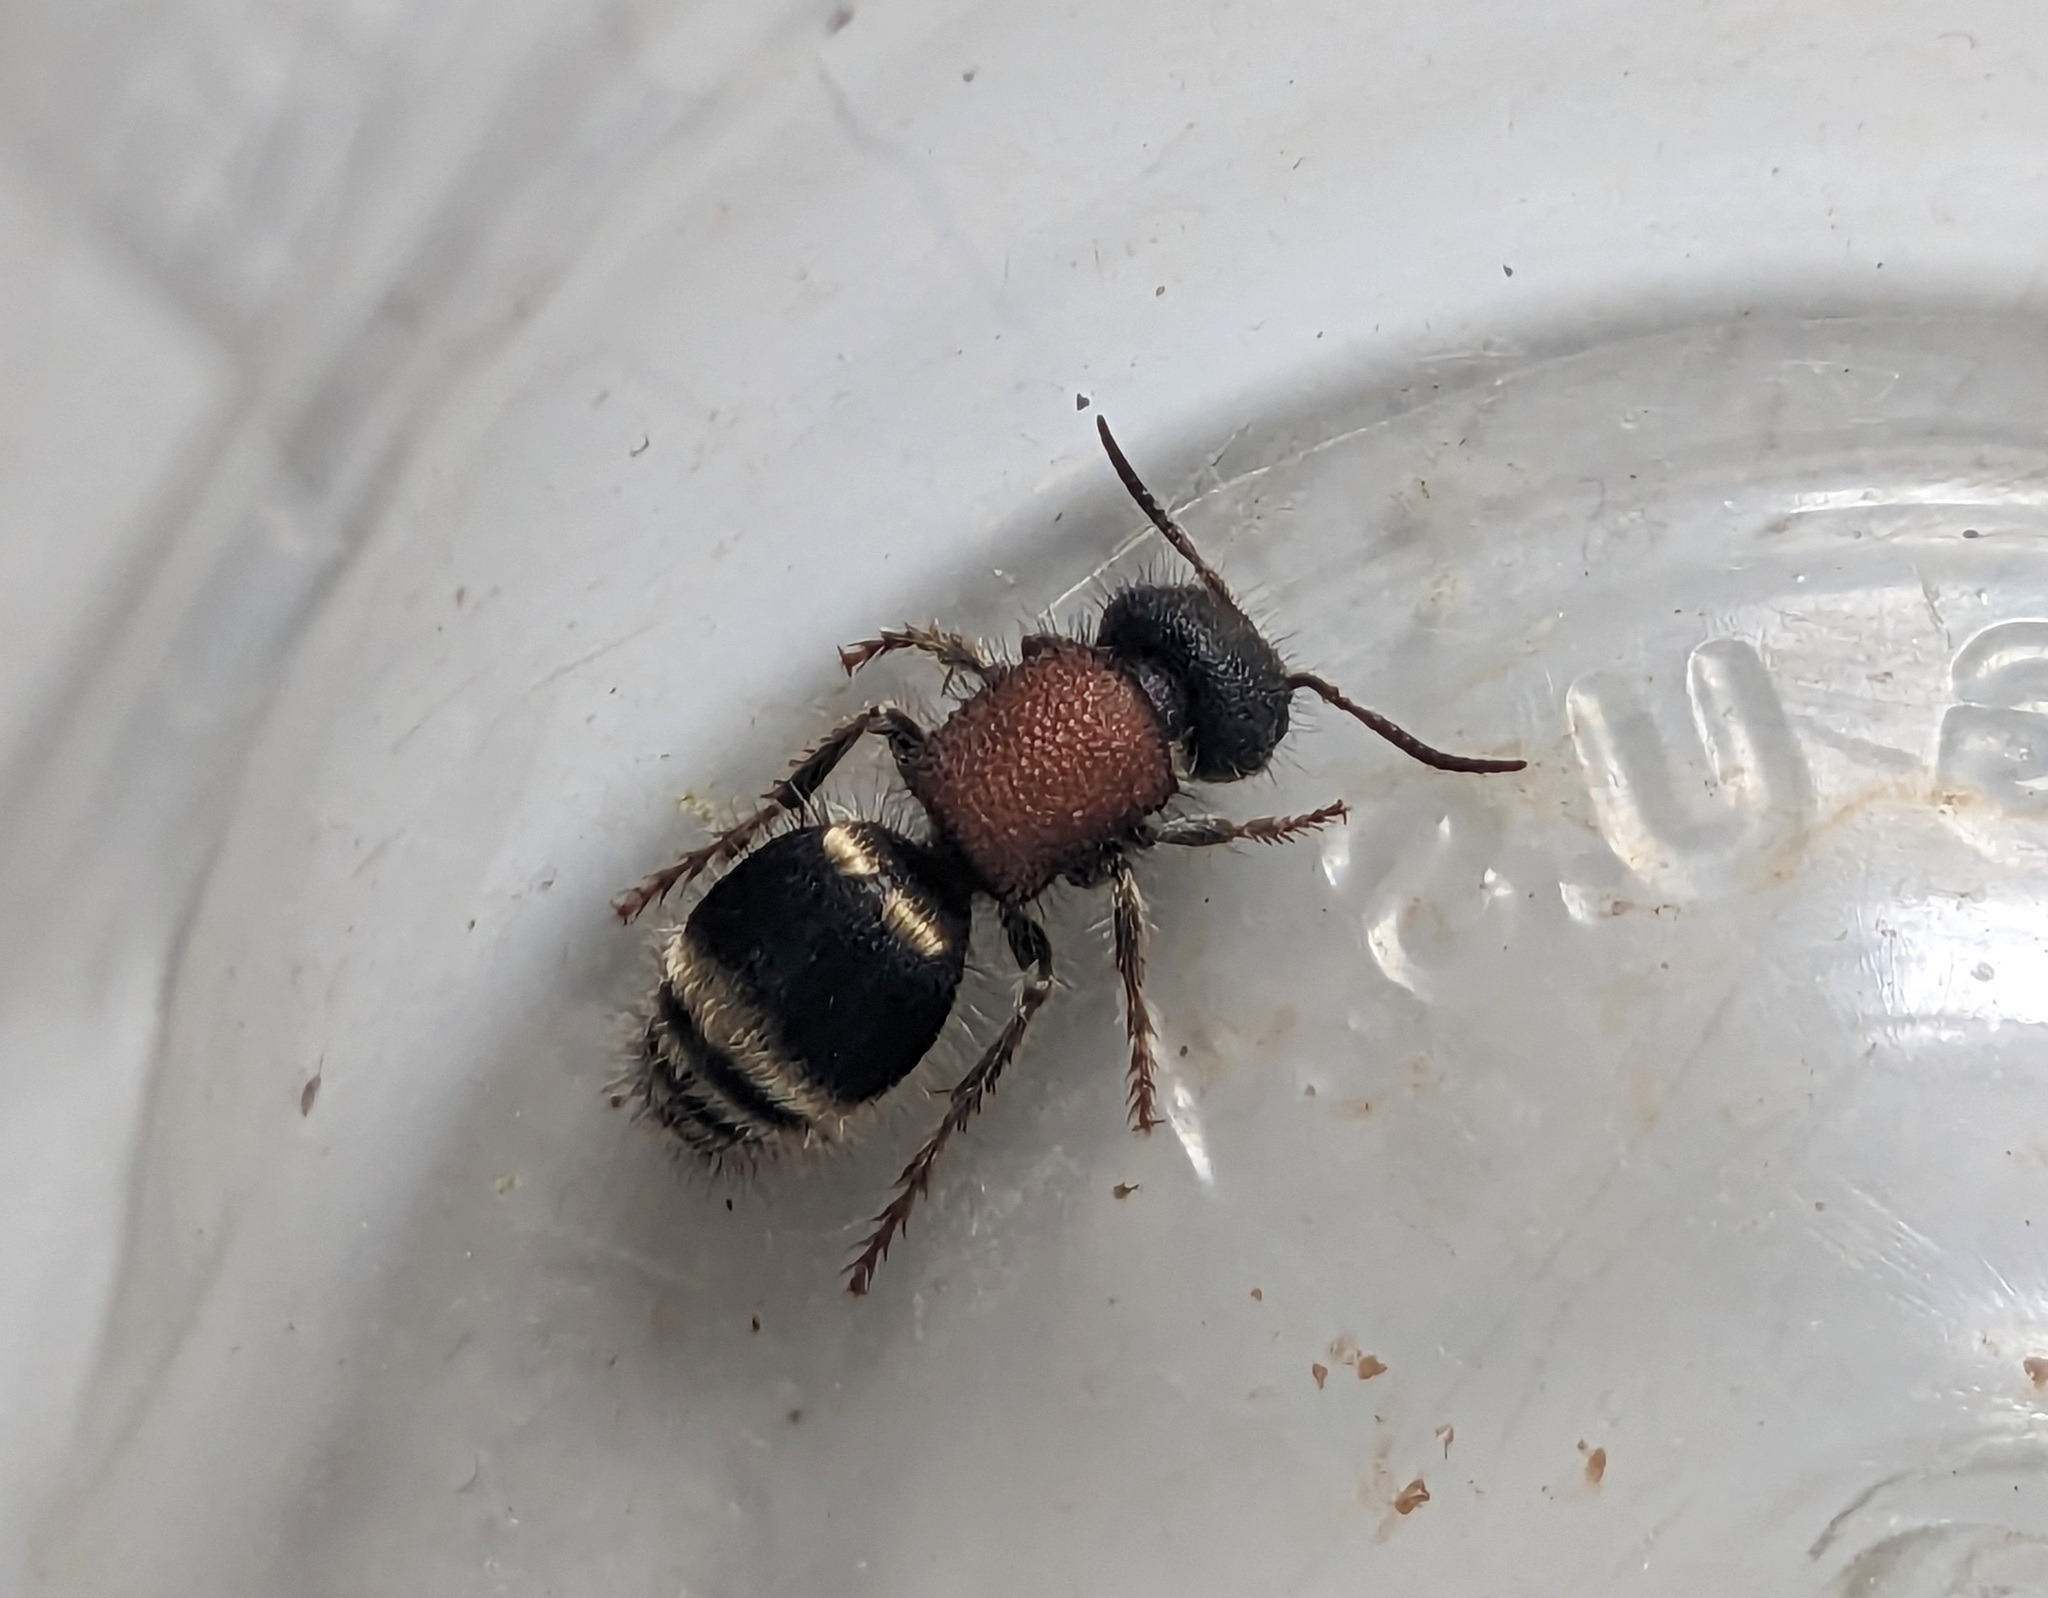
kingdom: Animalia
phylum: Arthropoda
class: Insecta
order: Hymenoptera
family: Mutillidae
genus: Tropidotilla
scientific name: Tropidotilla litoralis
